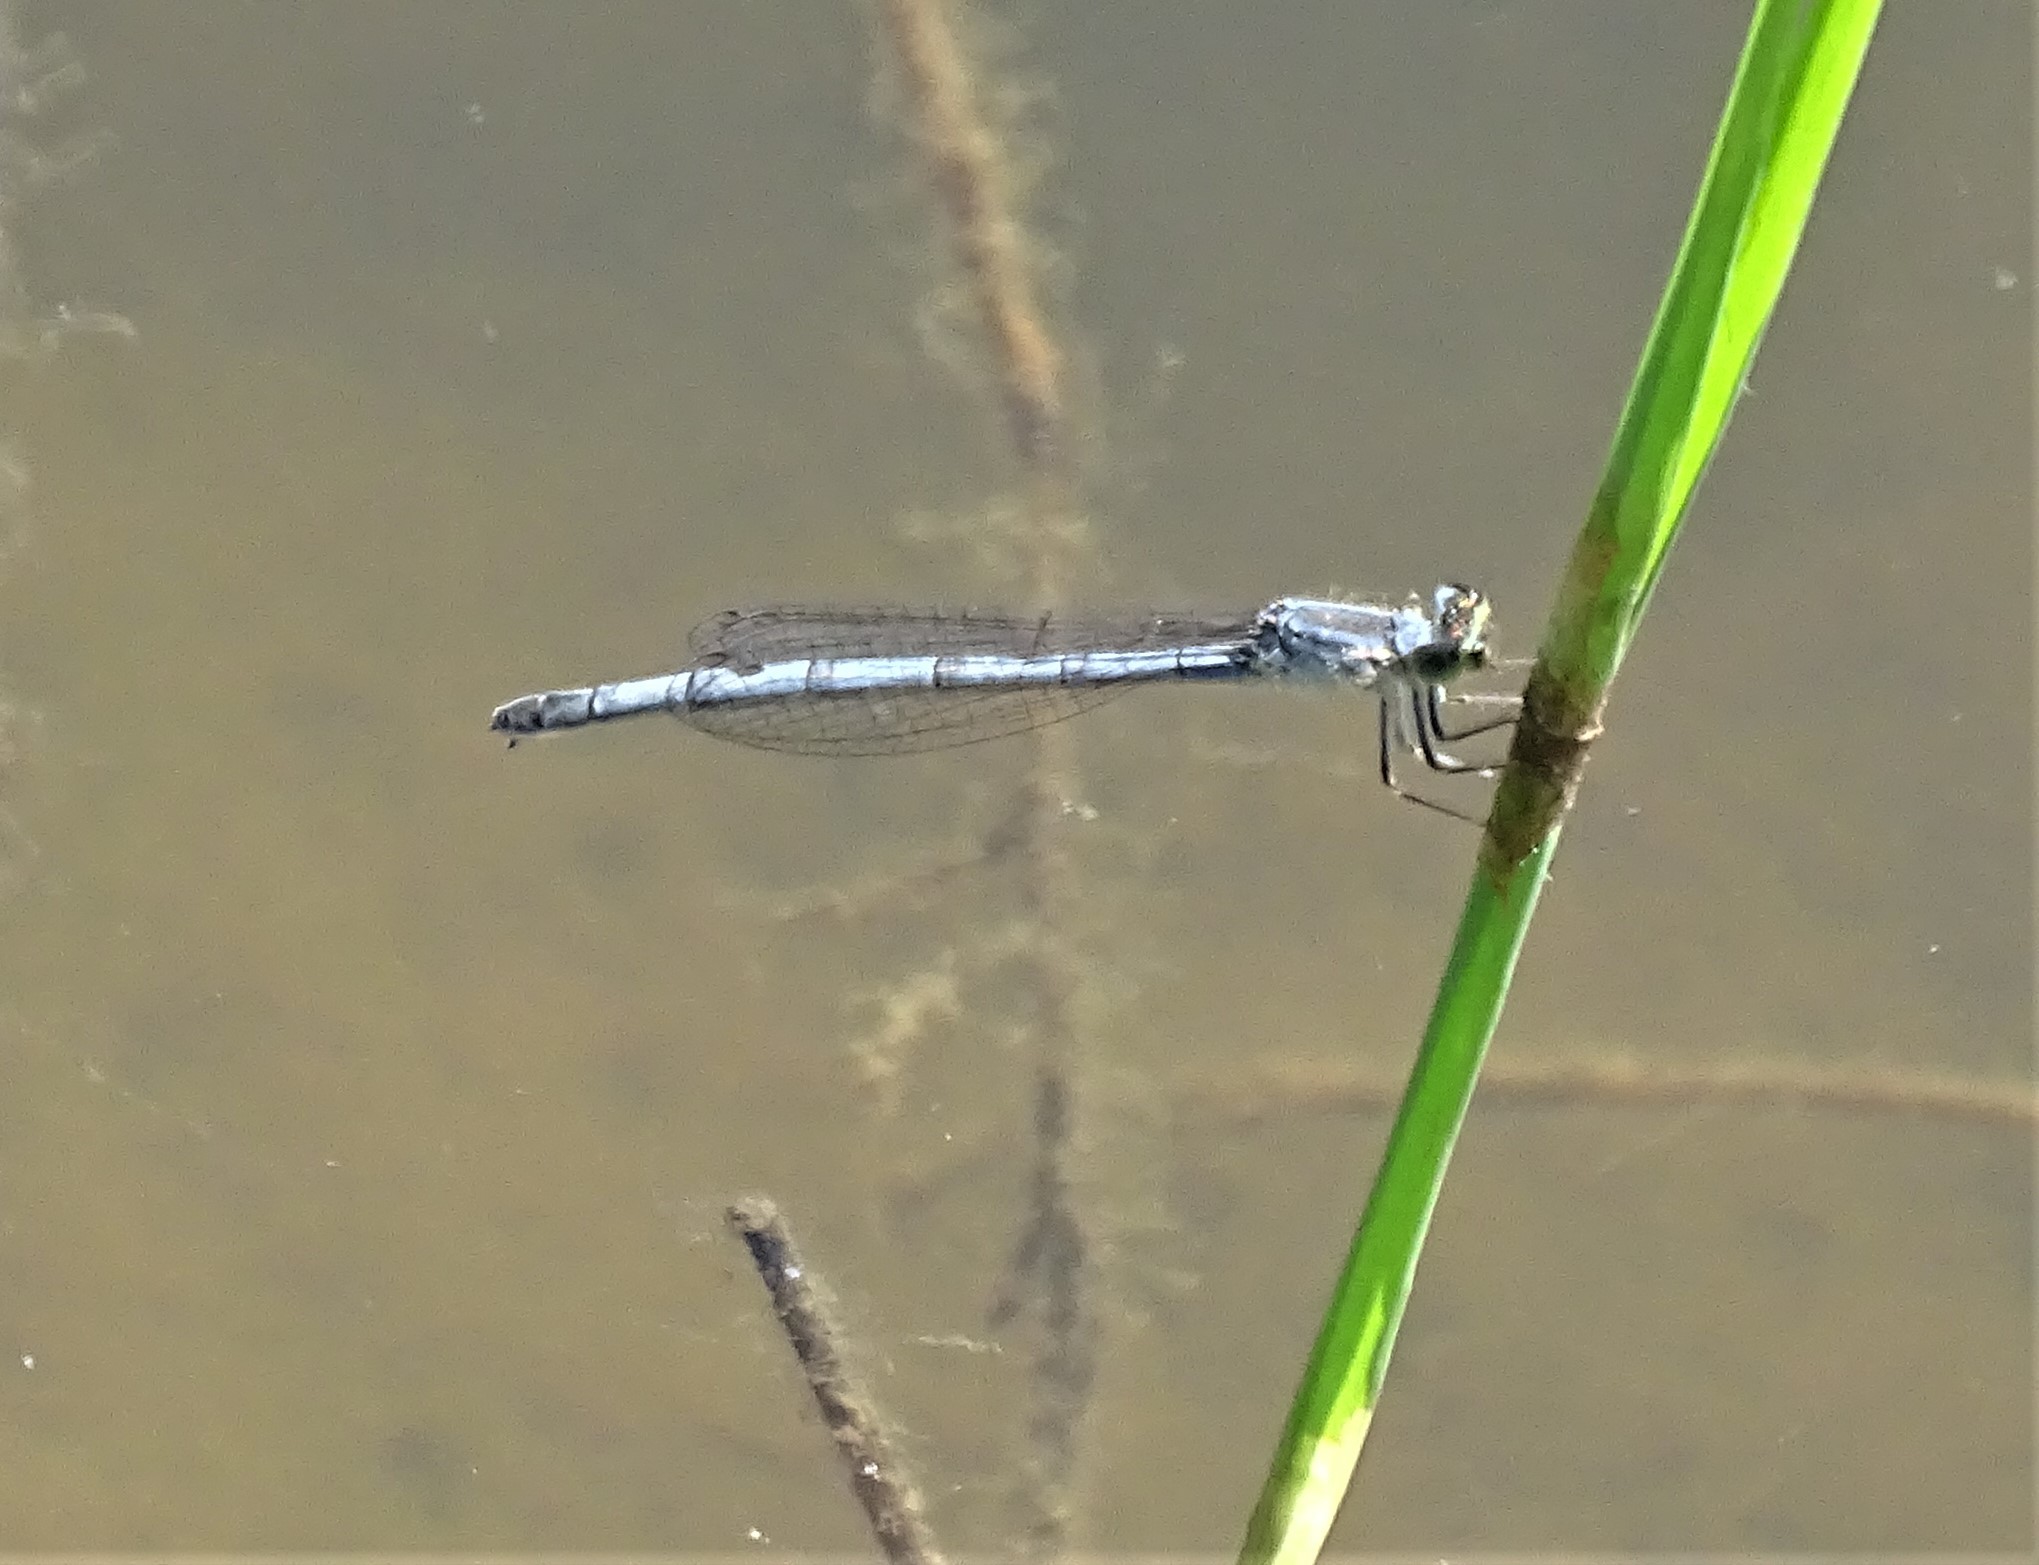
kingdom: Animalia
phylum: Arthropoda
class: Insecta
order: Odonata
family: Coenagrionidae
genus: Ischnura
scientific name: Ischnura verticalis
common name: Eastern forktail
